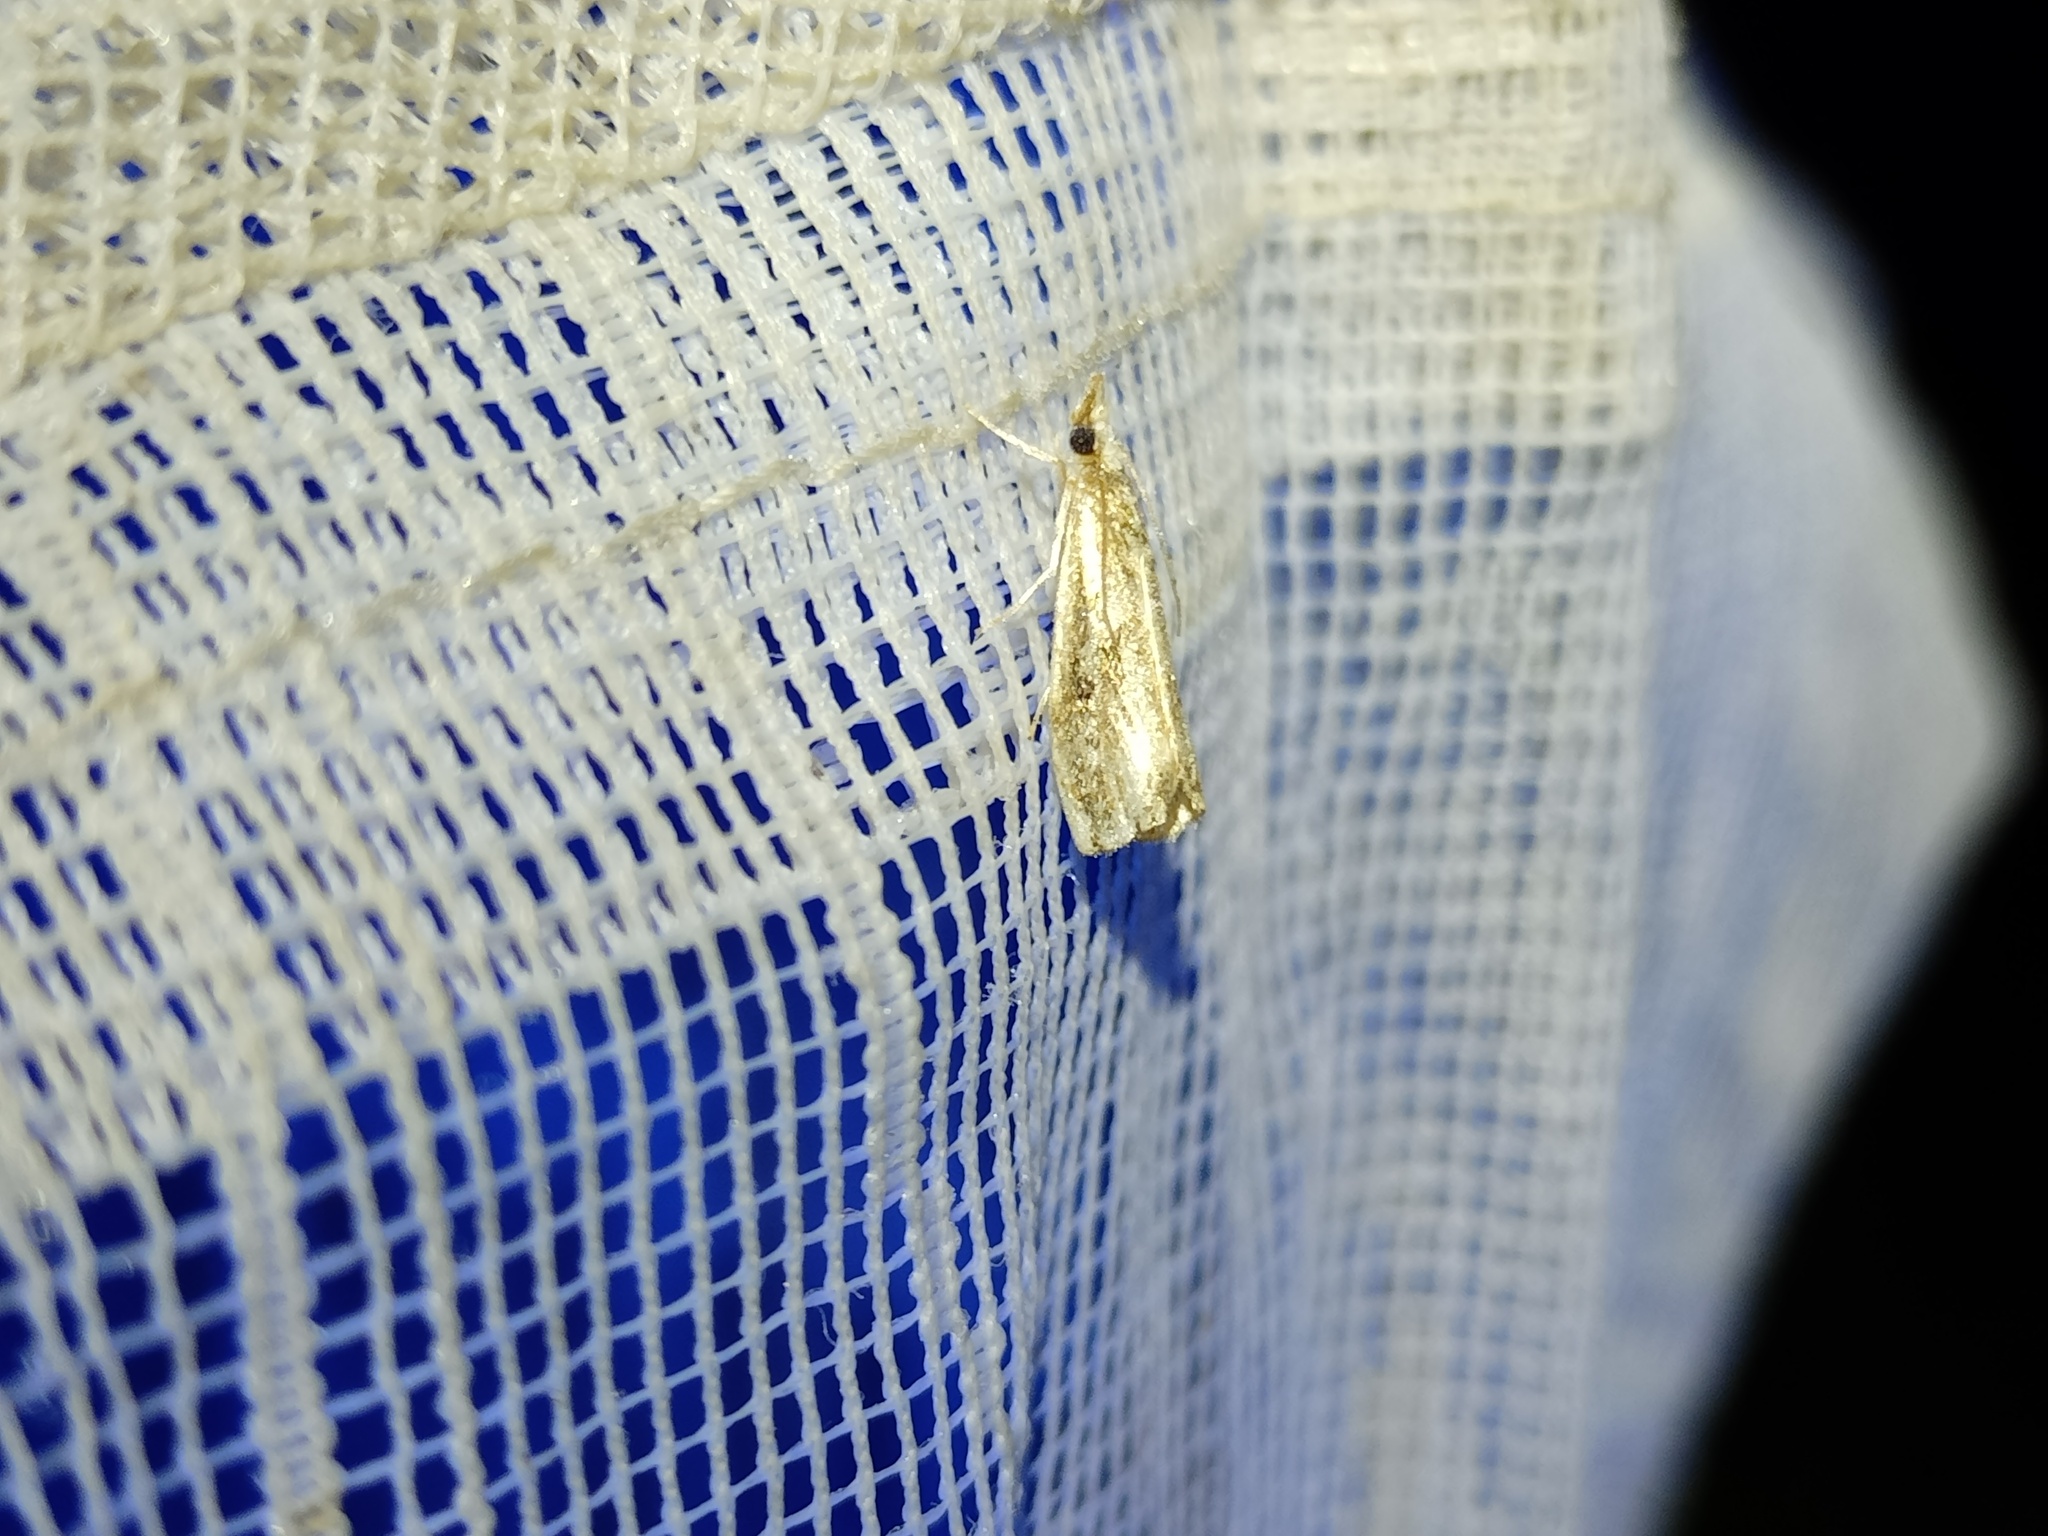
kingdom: Animalia
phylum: Arthropoda
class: Insecta
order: Lepidoptera
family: Crambidae
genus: Catoptria
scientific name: Catoptria verellus
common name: Marbled grass-veneer
